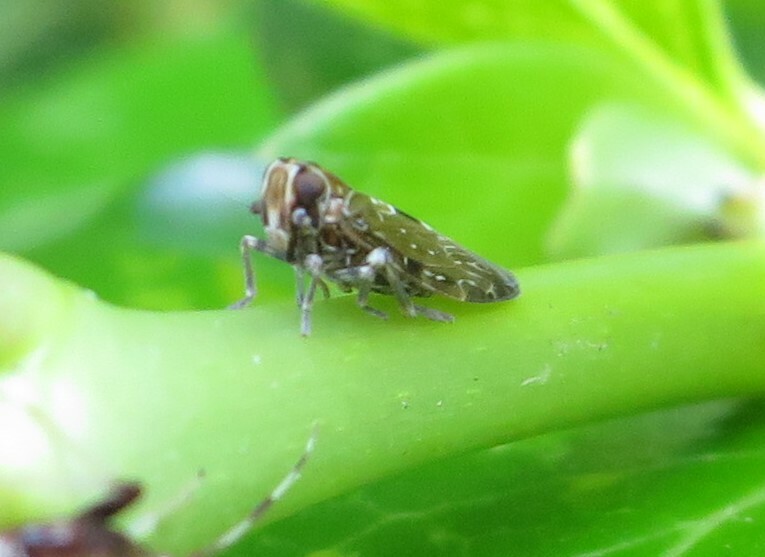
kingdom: Animalia
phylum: Arthropoda
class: Insecta
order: Hemiptera
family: Achilidae
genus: Agandecca
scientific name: Agandecca annectens
